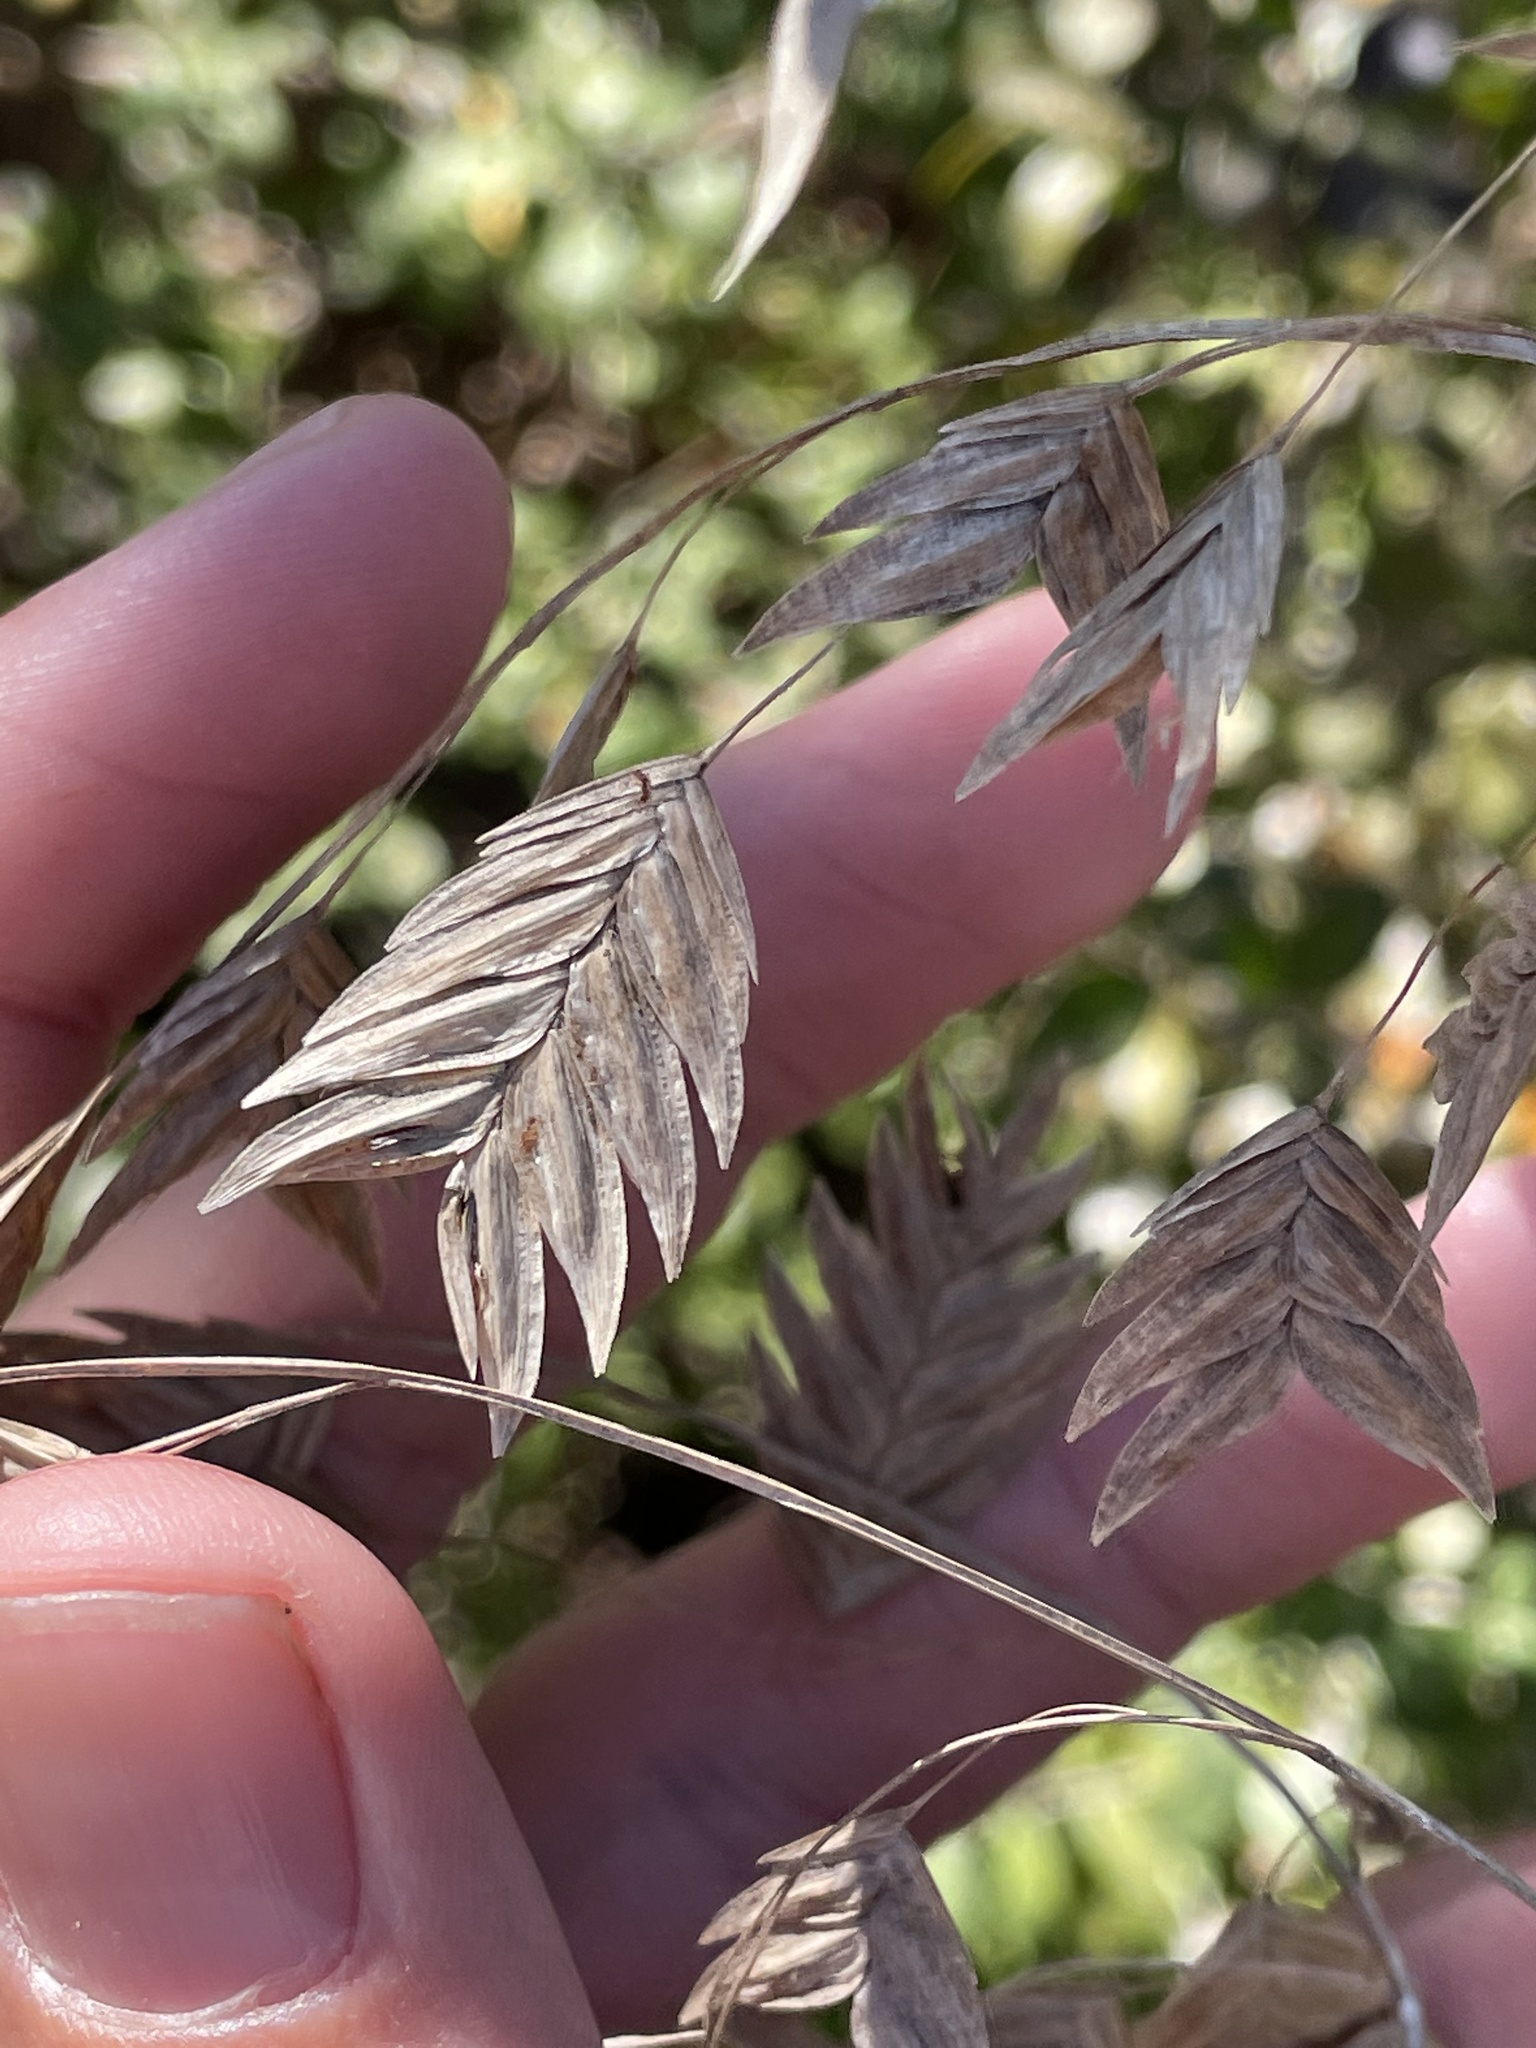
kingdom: Plantae
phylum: Tracheophyta
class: Liliopsida
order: Poales
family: Poaceae
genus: Chasmanthium
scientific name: Chasmanthium latifolium
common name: Broad-leaved chasmanthium
